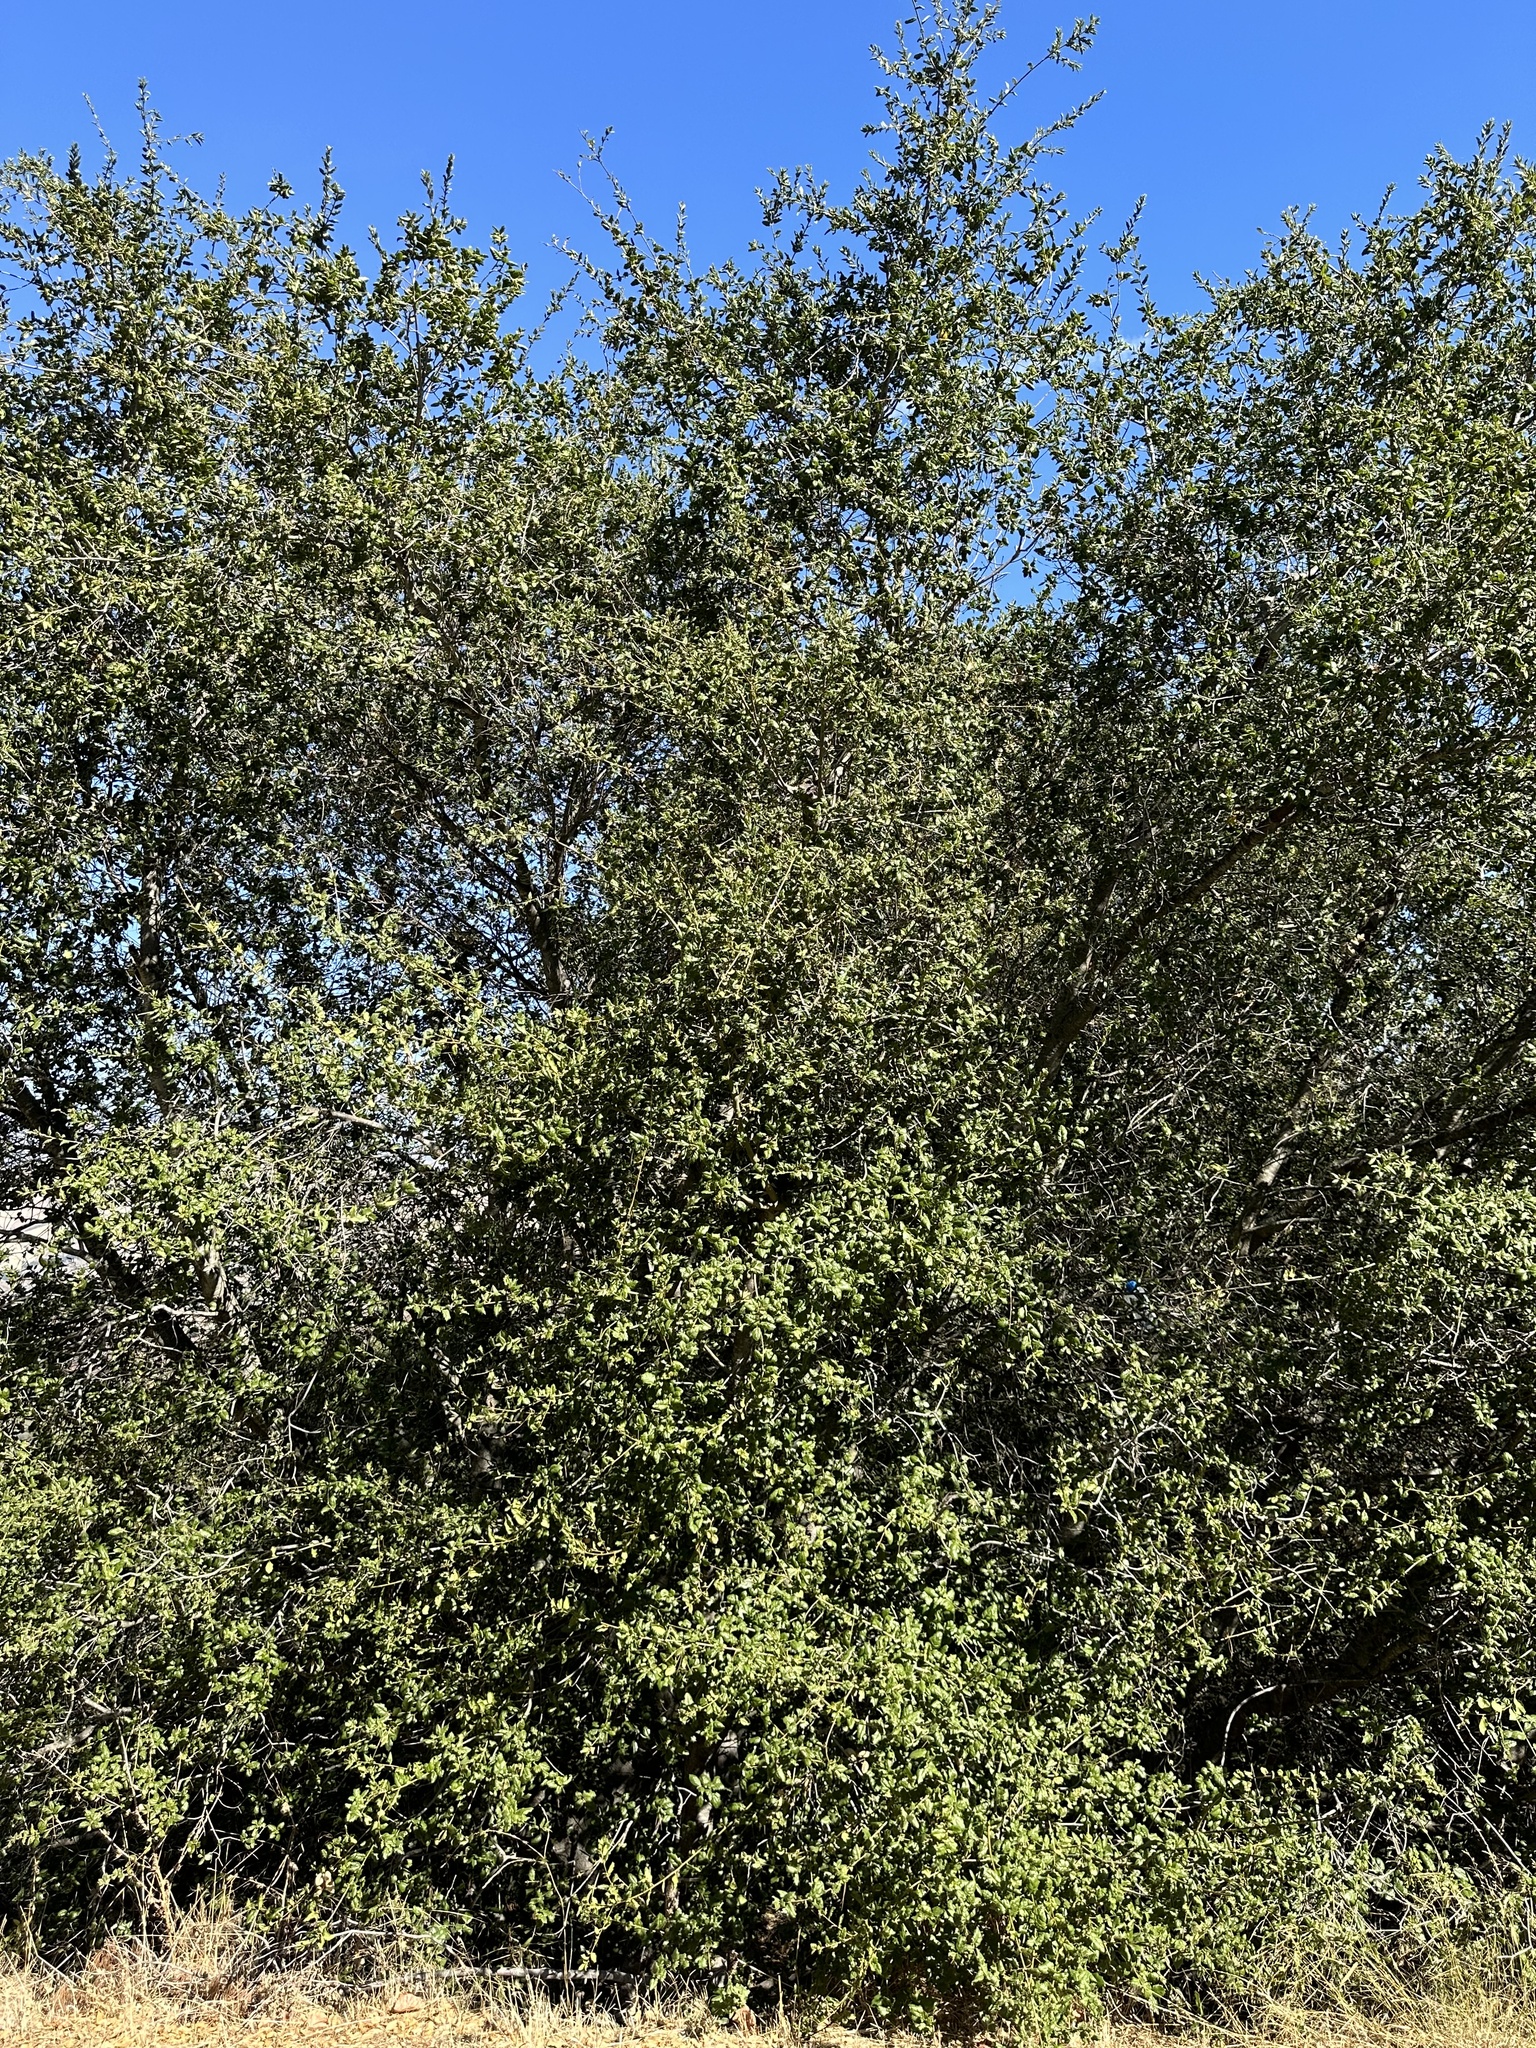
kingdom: Plantae
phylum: Tracheophyta
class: Magnoliopsida
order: Fagales
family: Fagaceae
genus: Quercus
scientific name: Quercus agrifolia
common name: California live oak
